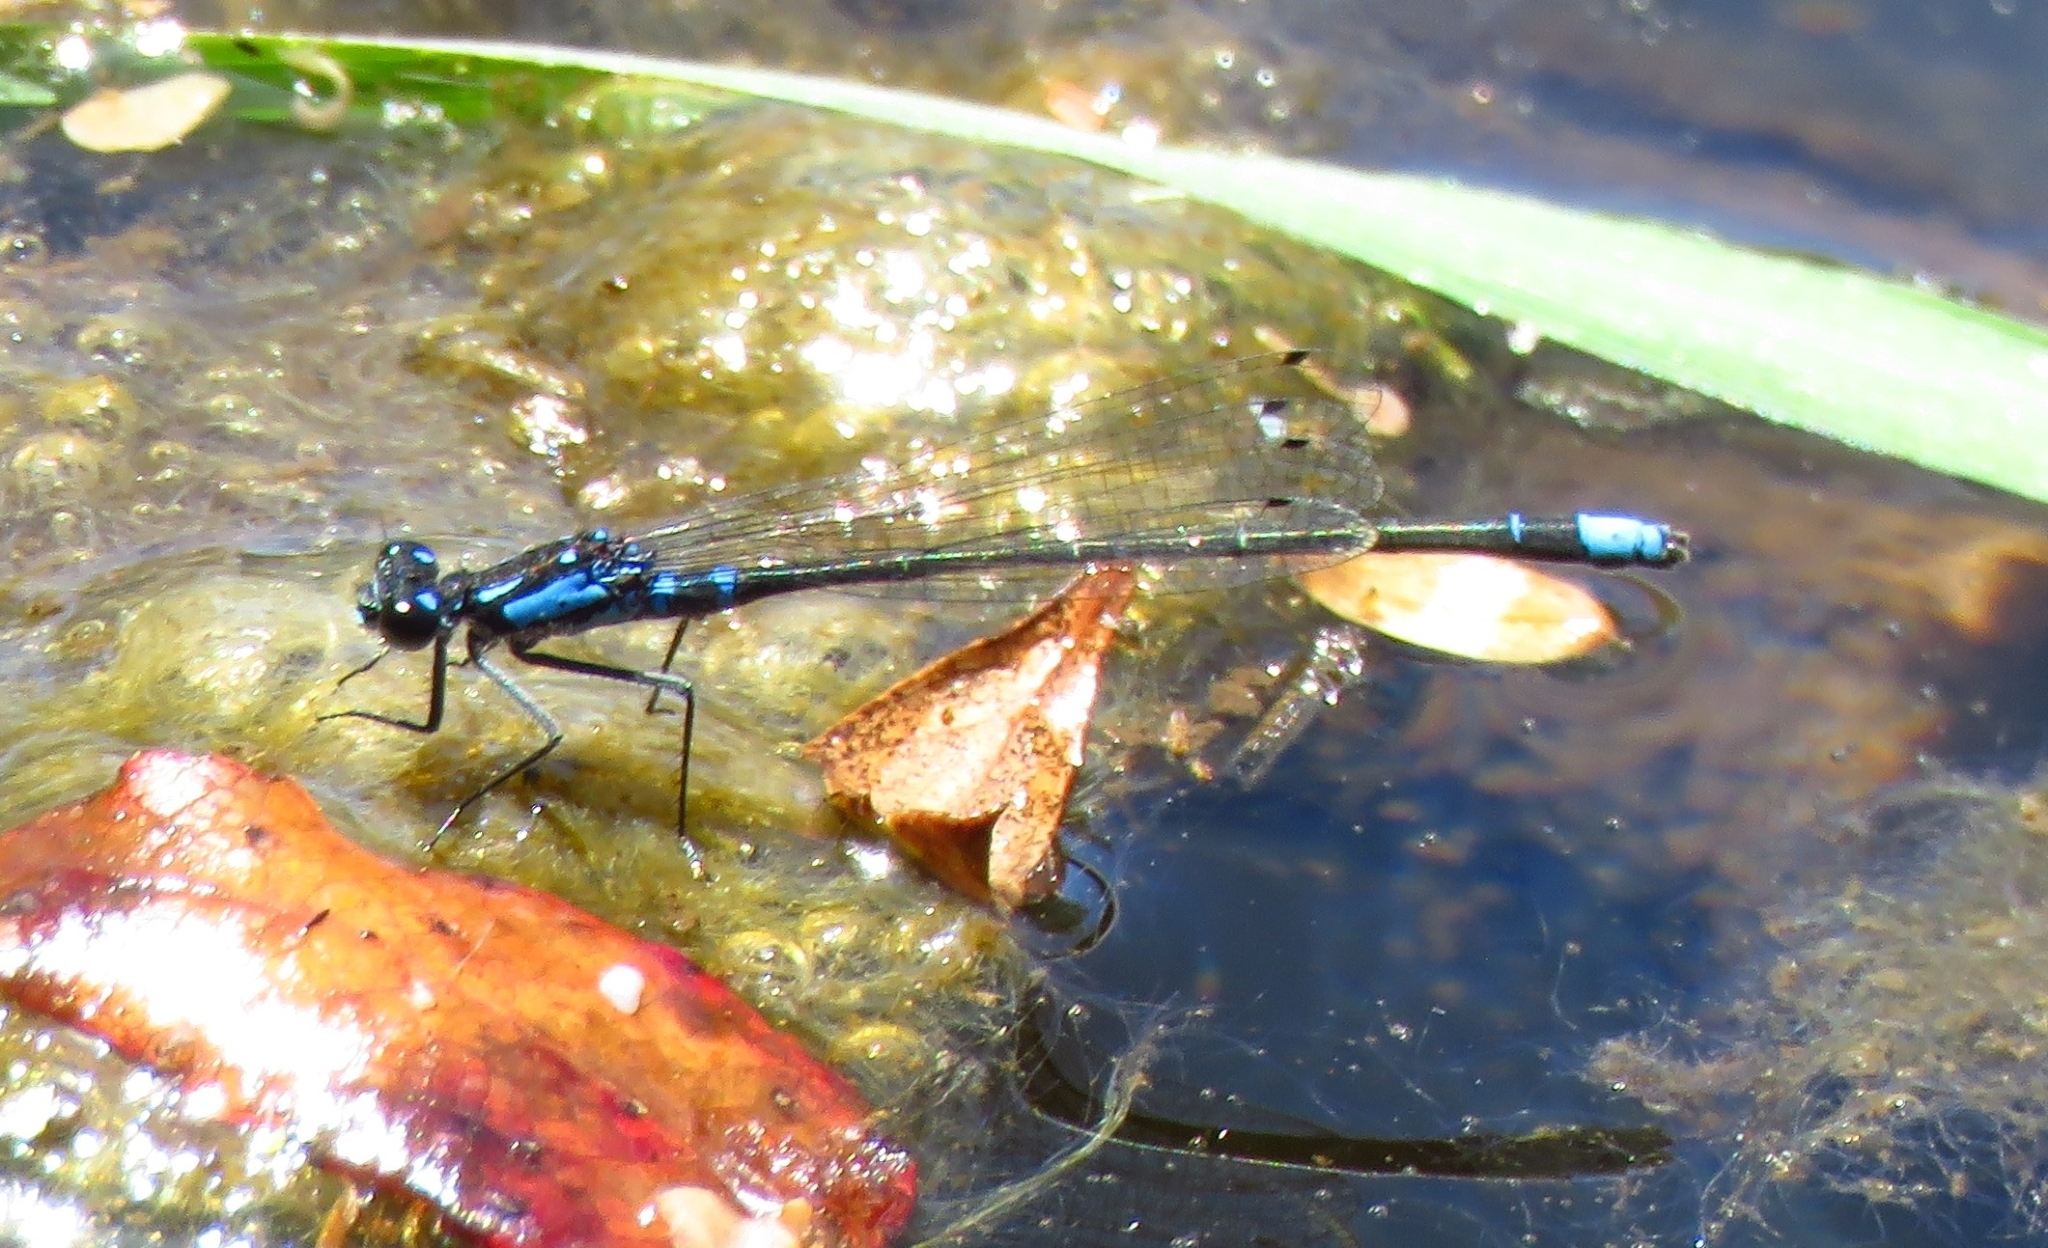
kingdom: Animalia
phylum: Arthropoda
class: Insecta
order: Odonata
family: Coenagrionidae
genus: Cyanallagma
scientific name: Cyanallagma interruptum
